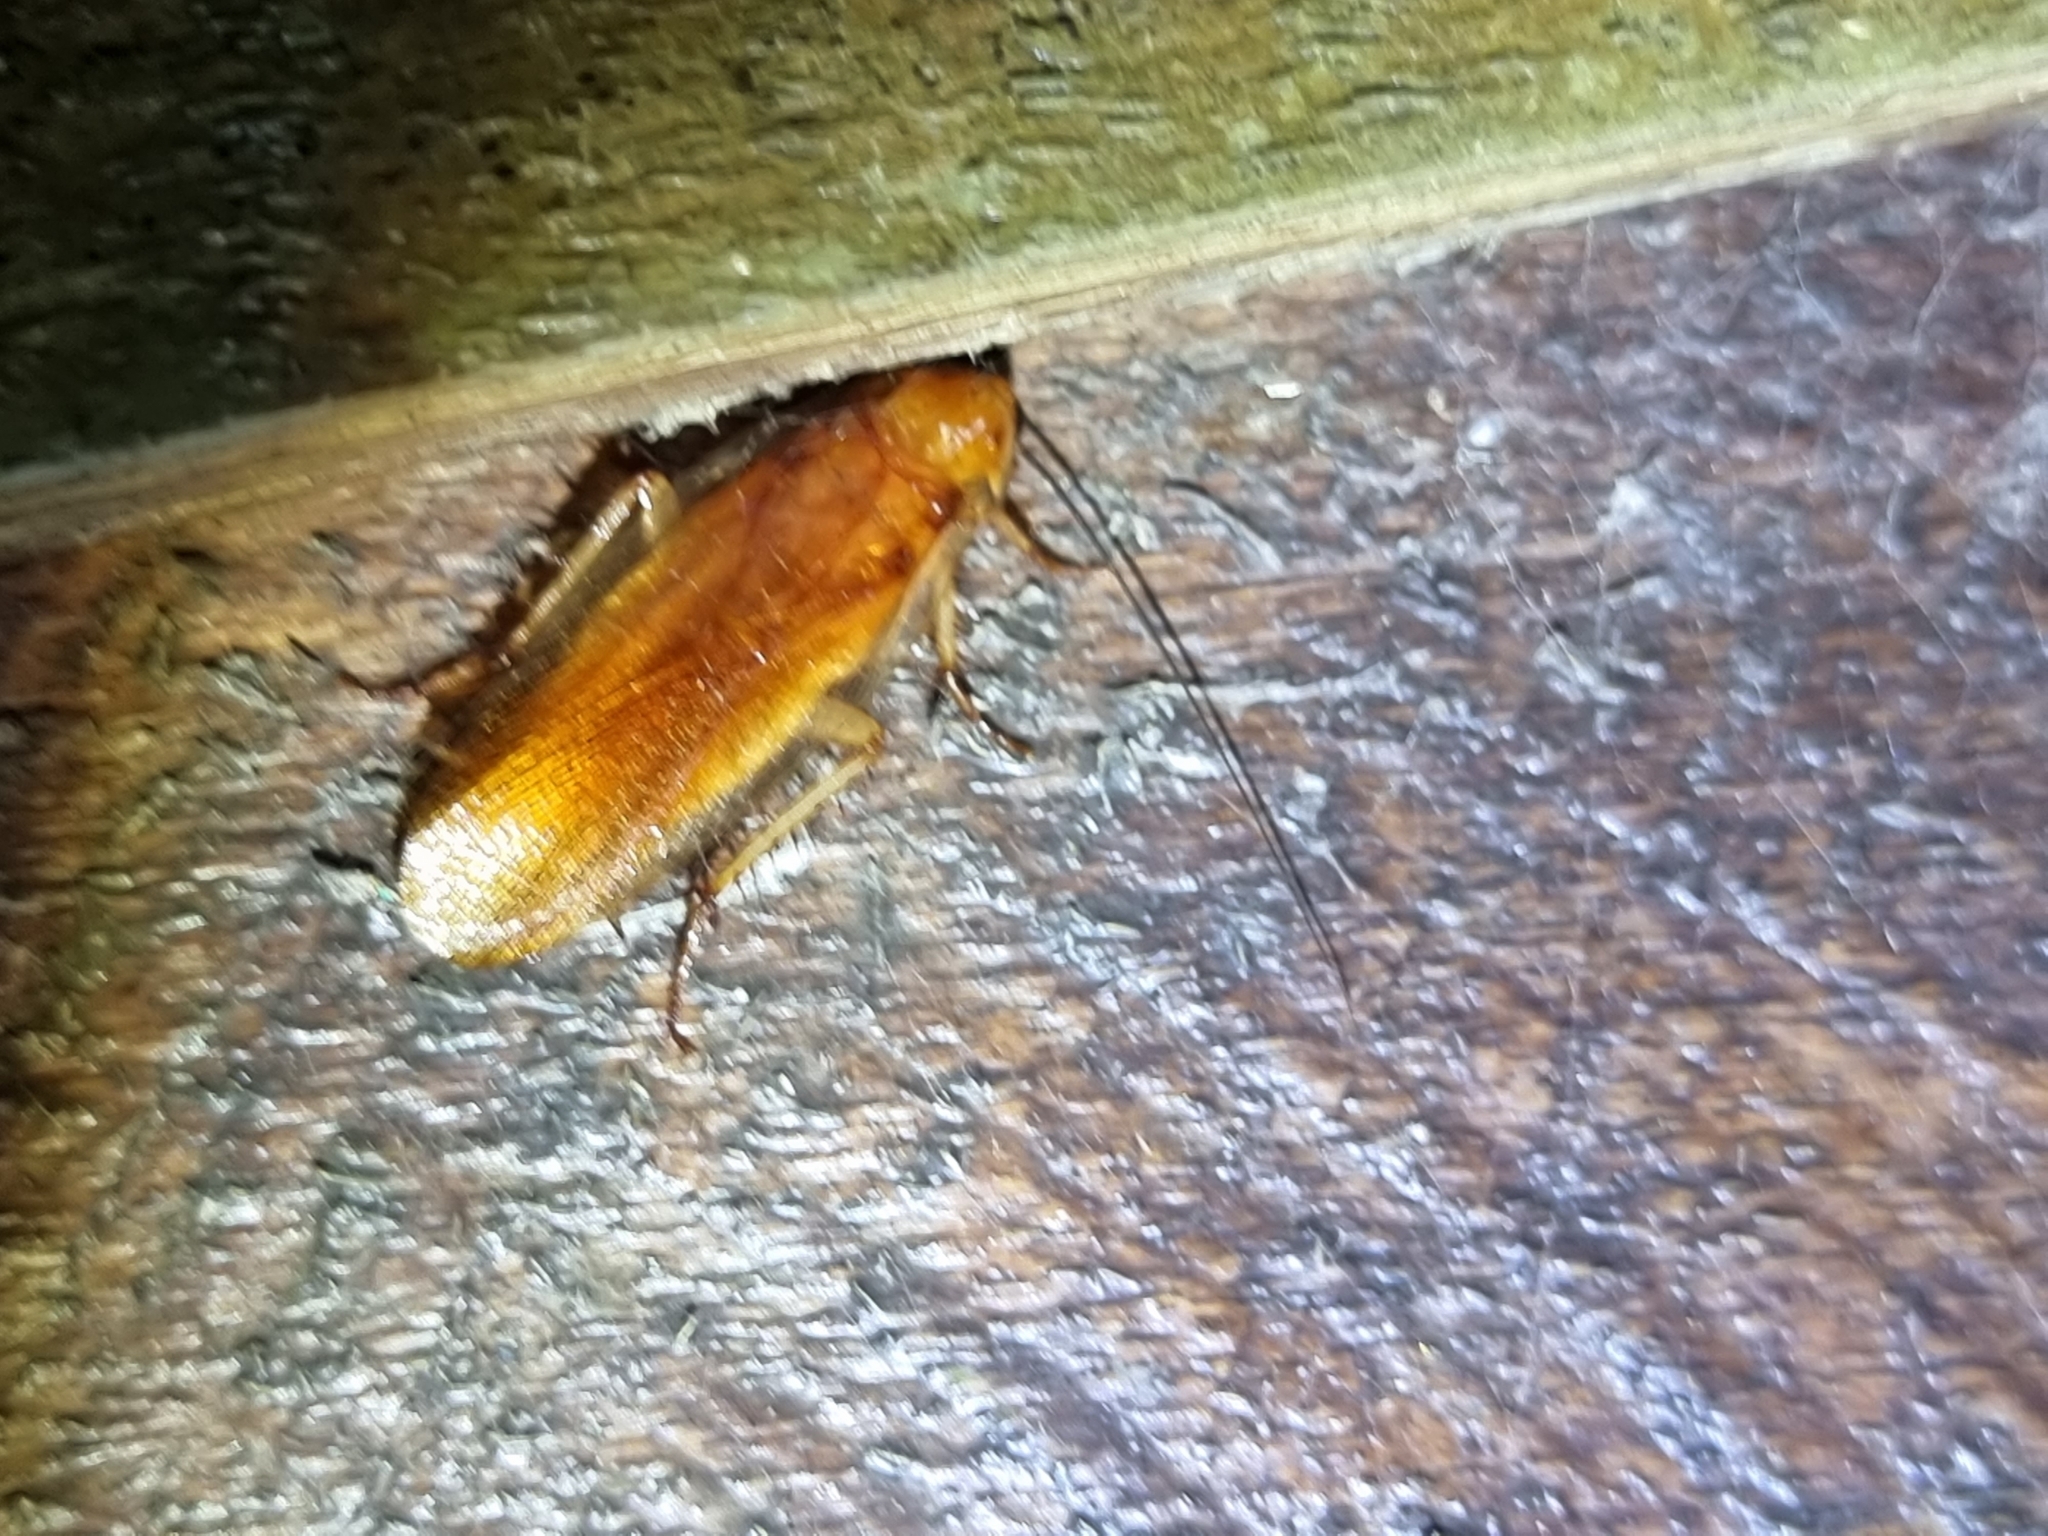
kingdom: Animalia
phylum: Arthropoda
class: Insecta
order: Blattodea
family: Ectobiidae
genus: Neotemnopteryx
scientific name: Neotemnopteryx fulva
